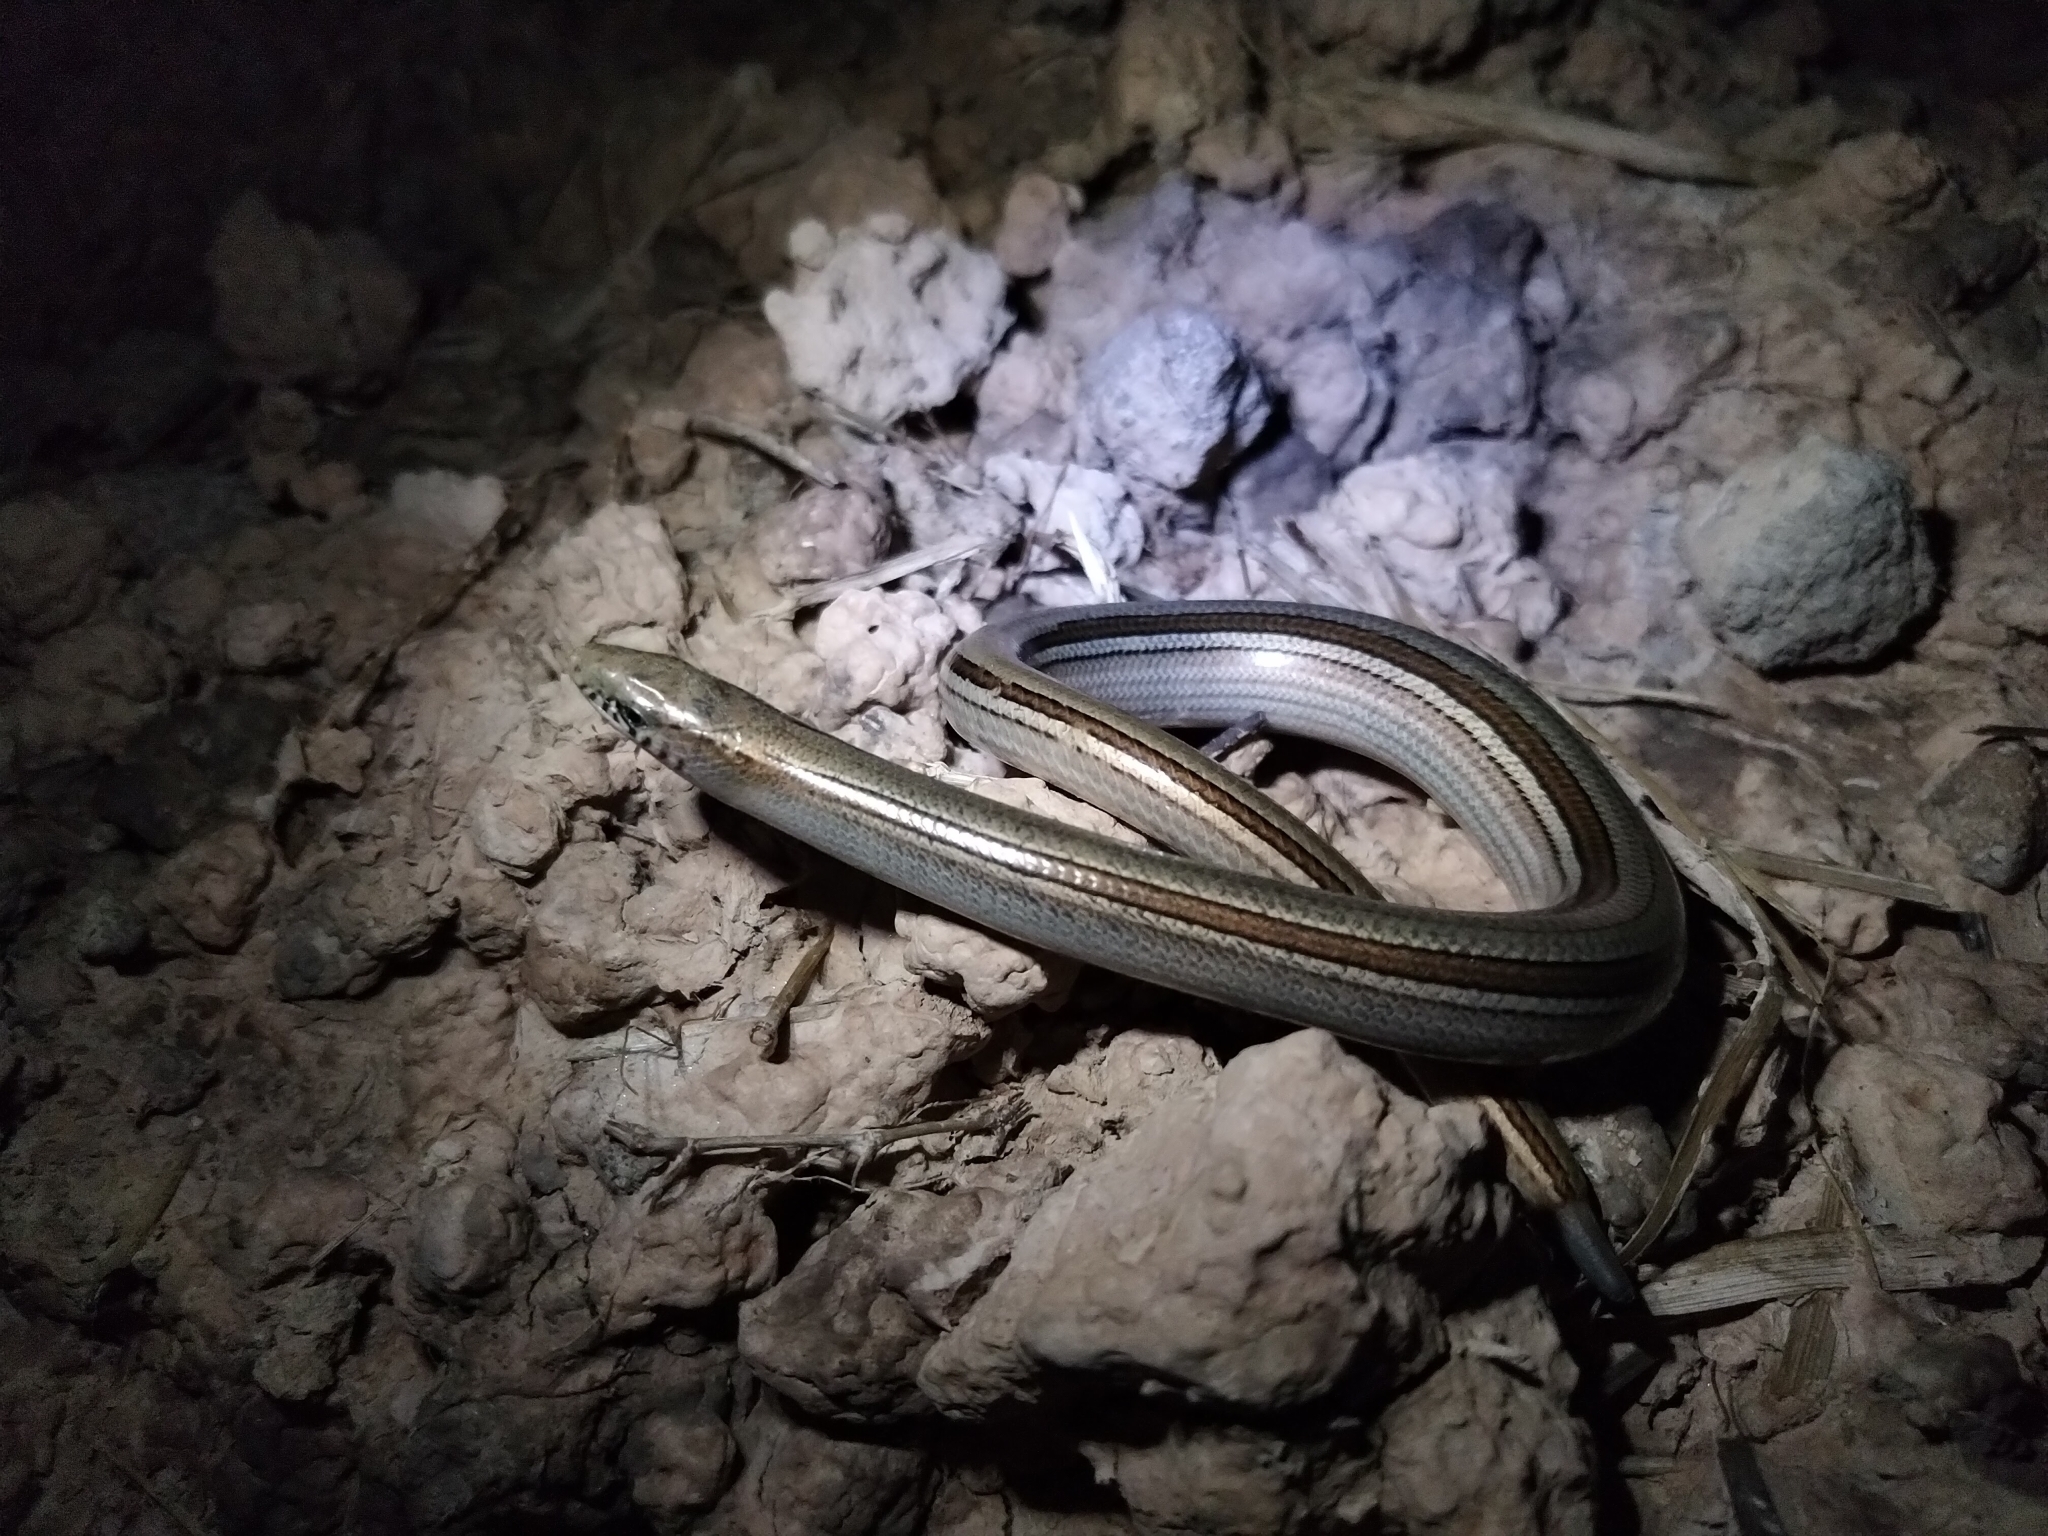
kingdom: Animalia
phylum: Chordata
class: Squamata
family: Diploglossidae
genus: Ophiodes
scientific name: Ophiodes intermedius
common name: Middle worm lizard
